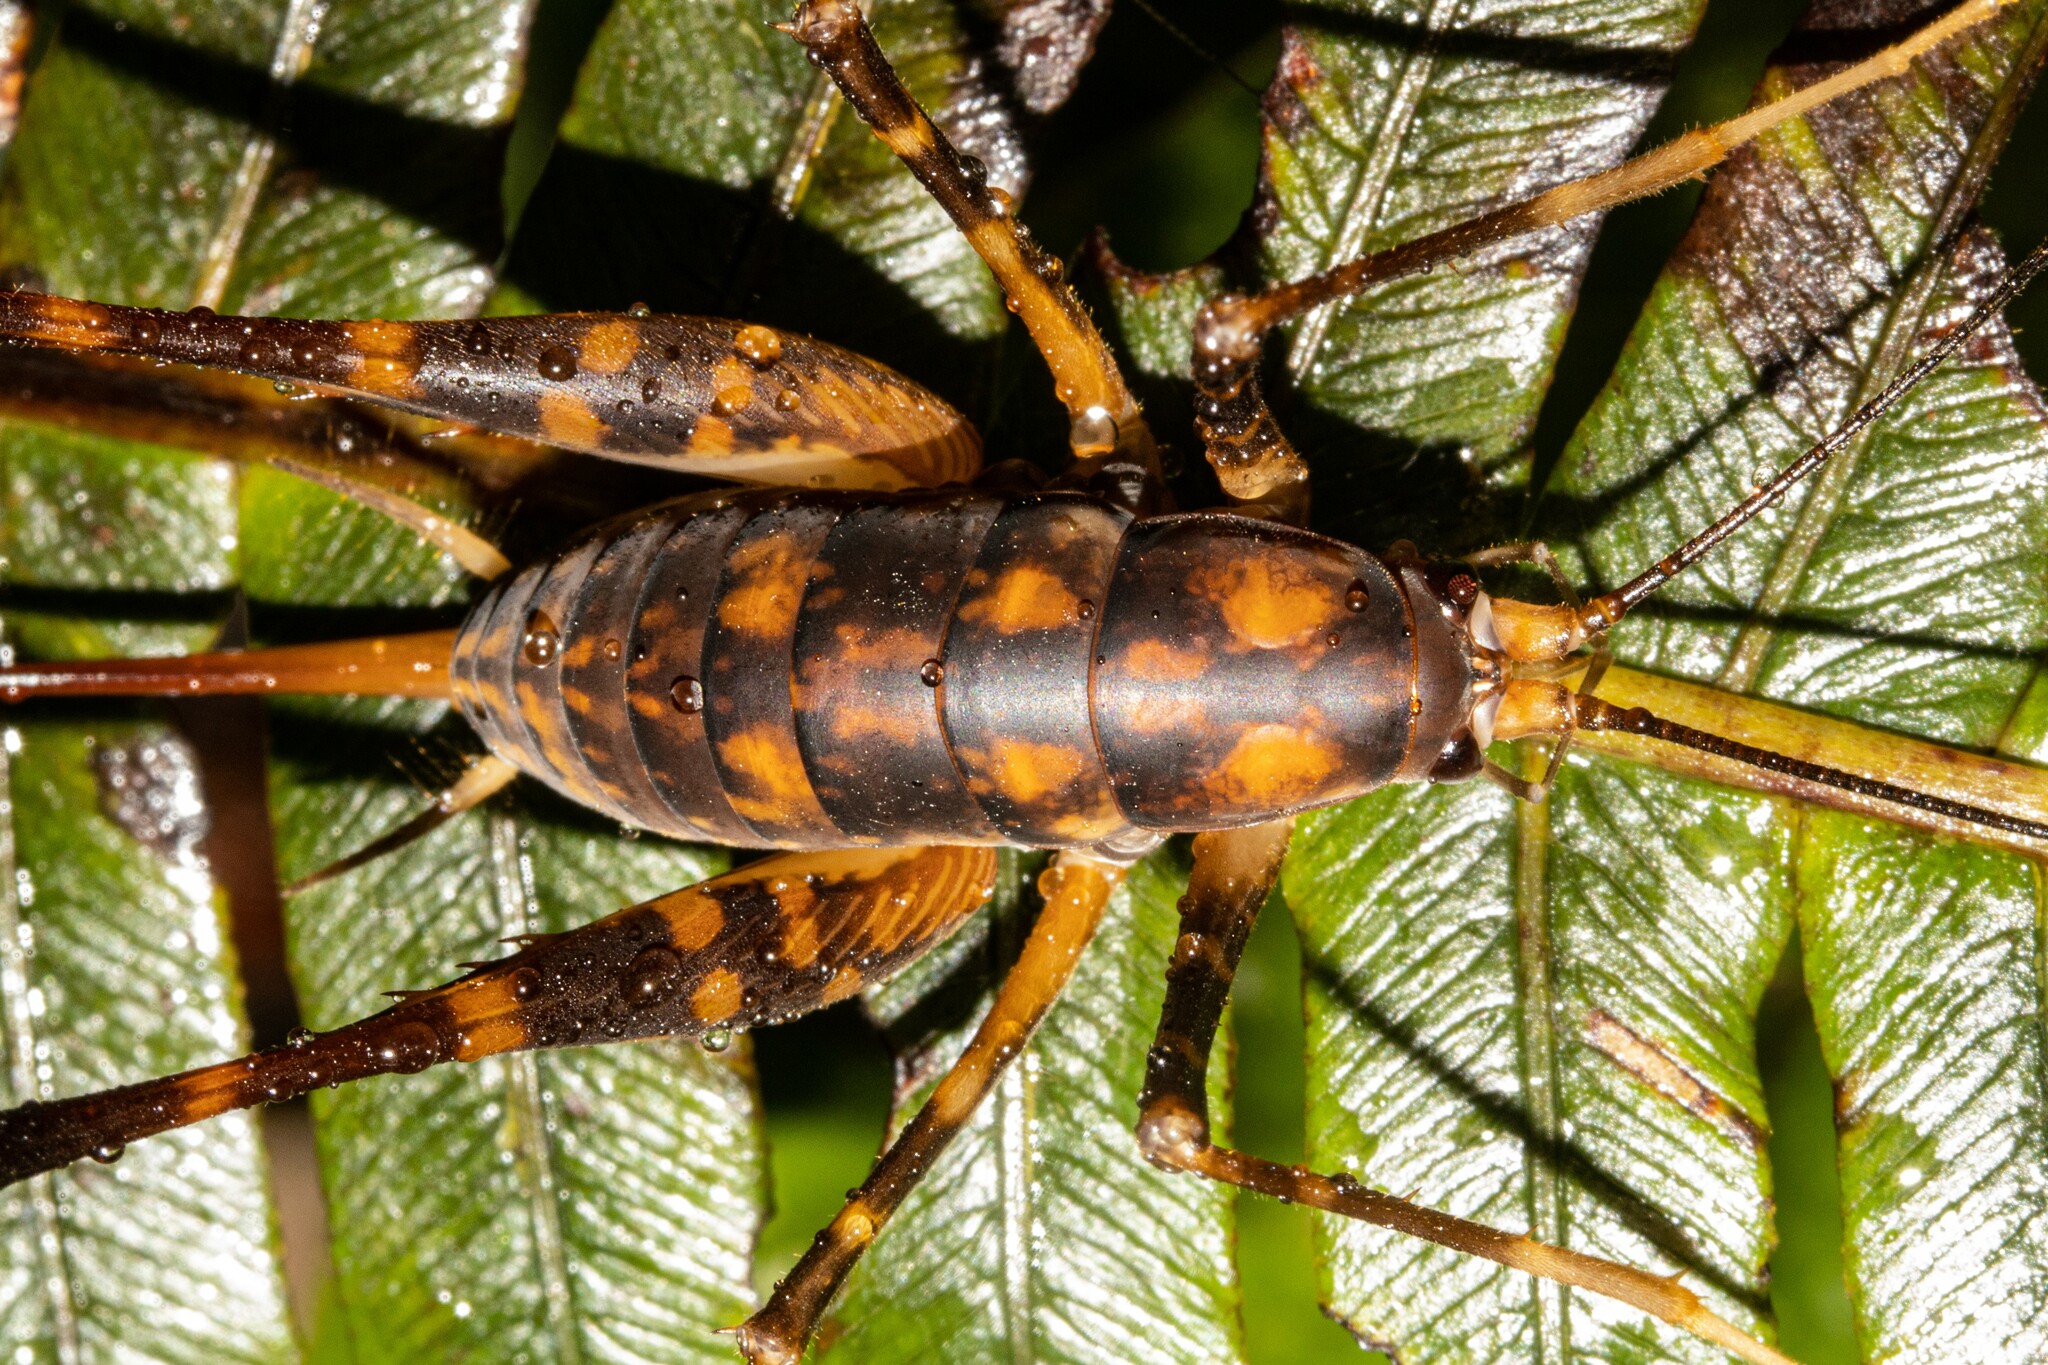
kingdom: Animalia
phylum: Arthropoda
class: Insecta
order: Orthoptera
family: Rhaphidophoridae
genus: Pachyrhamma
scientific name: Pachyrhamma uncata
